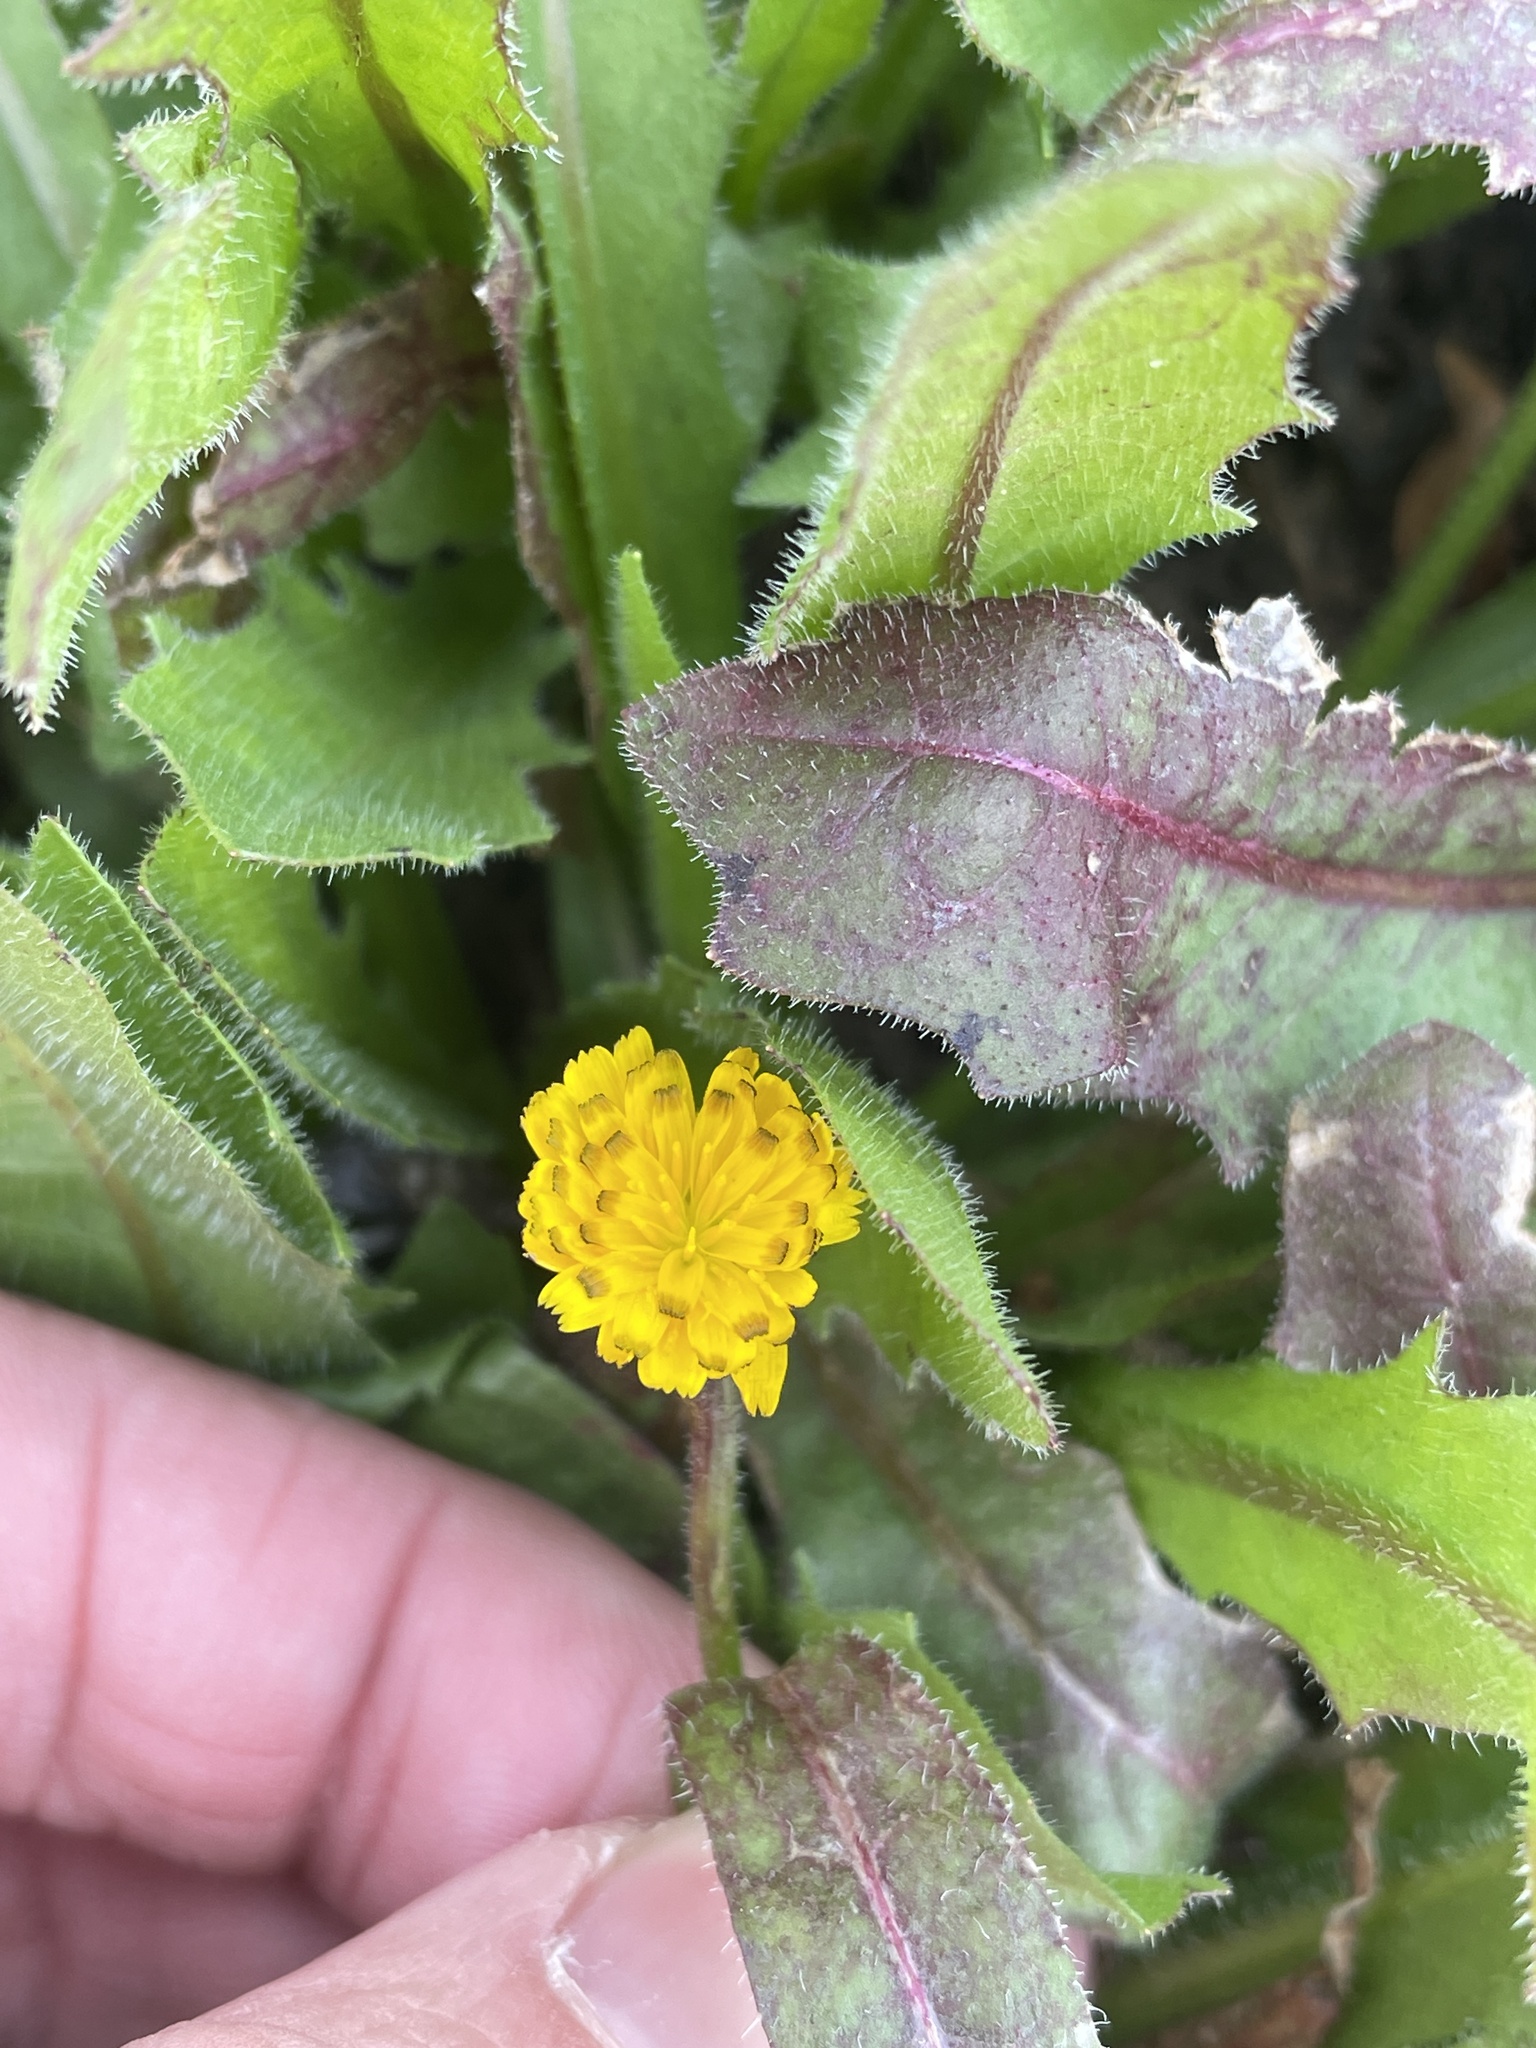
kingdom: Plantae
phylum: Tracheophyta
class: Magnoliopsida
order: Asterales
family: Asteraceae
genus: Hedypnois
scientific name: Hedypnois rhagadioloides
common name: Cretan weed
